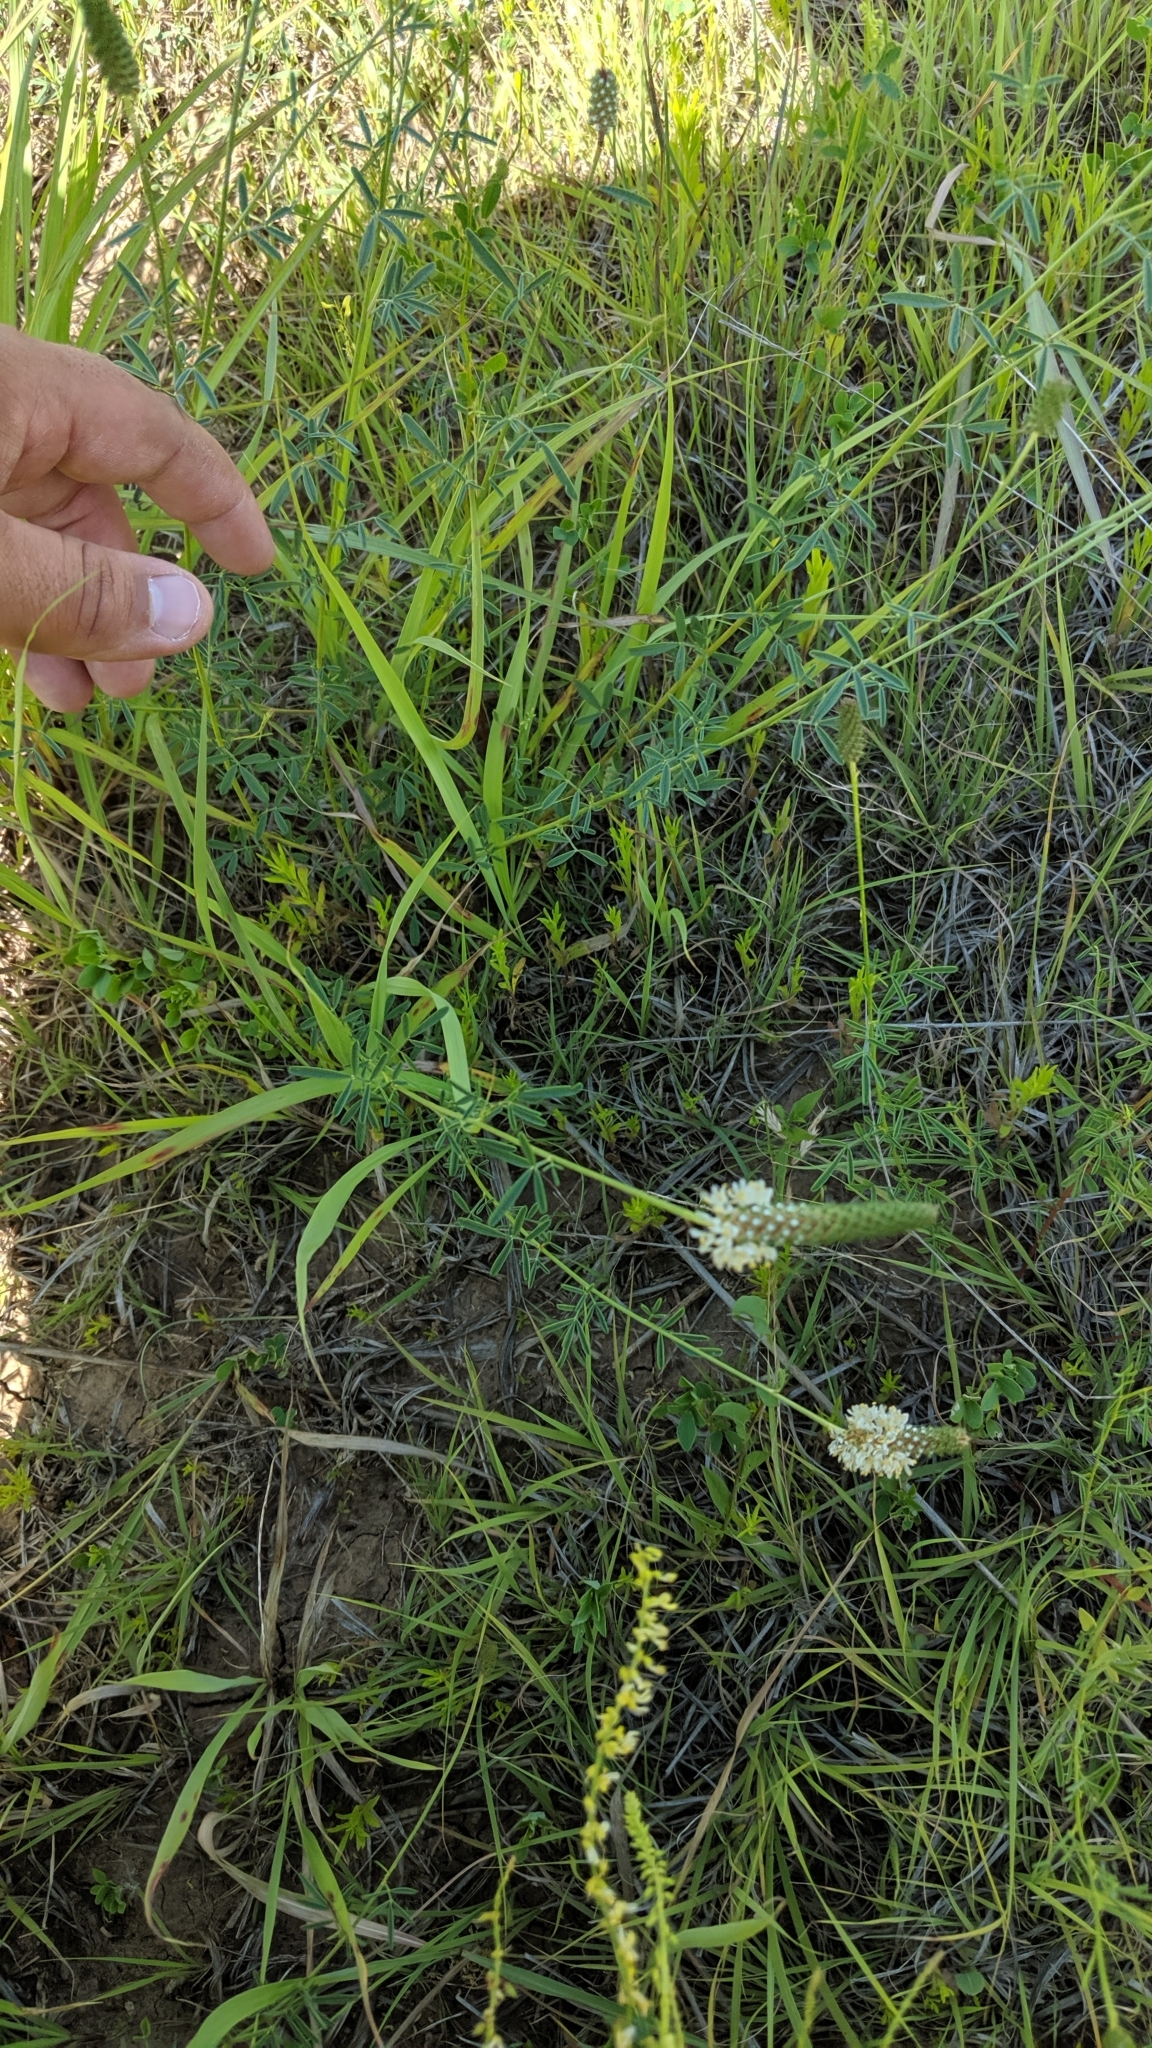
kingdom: Plantae
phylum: Tracheophyta
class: Magnoliopsida
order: Fabales
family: Fabaceae
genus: Dalea
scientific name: Dalea candida
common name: White prairie-clover
